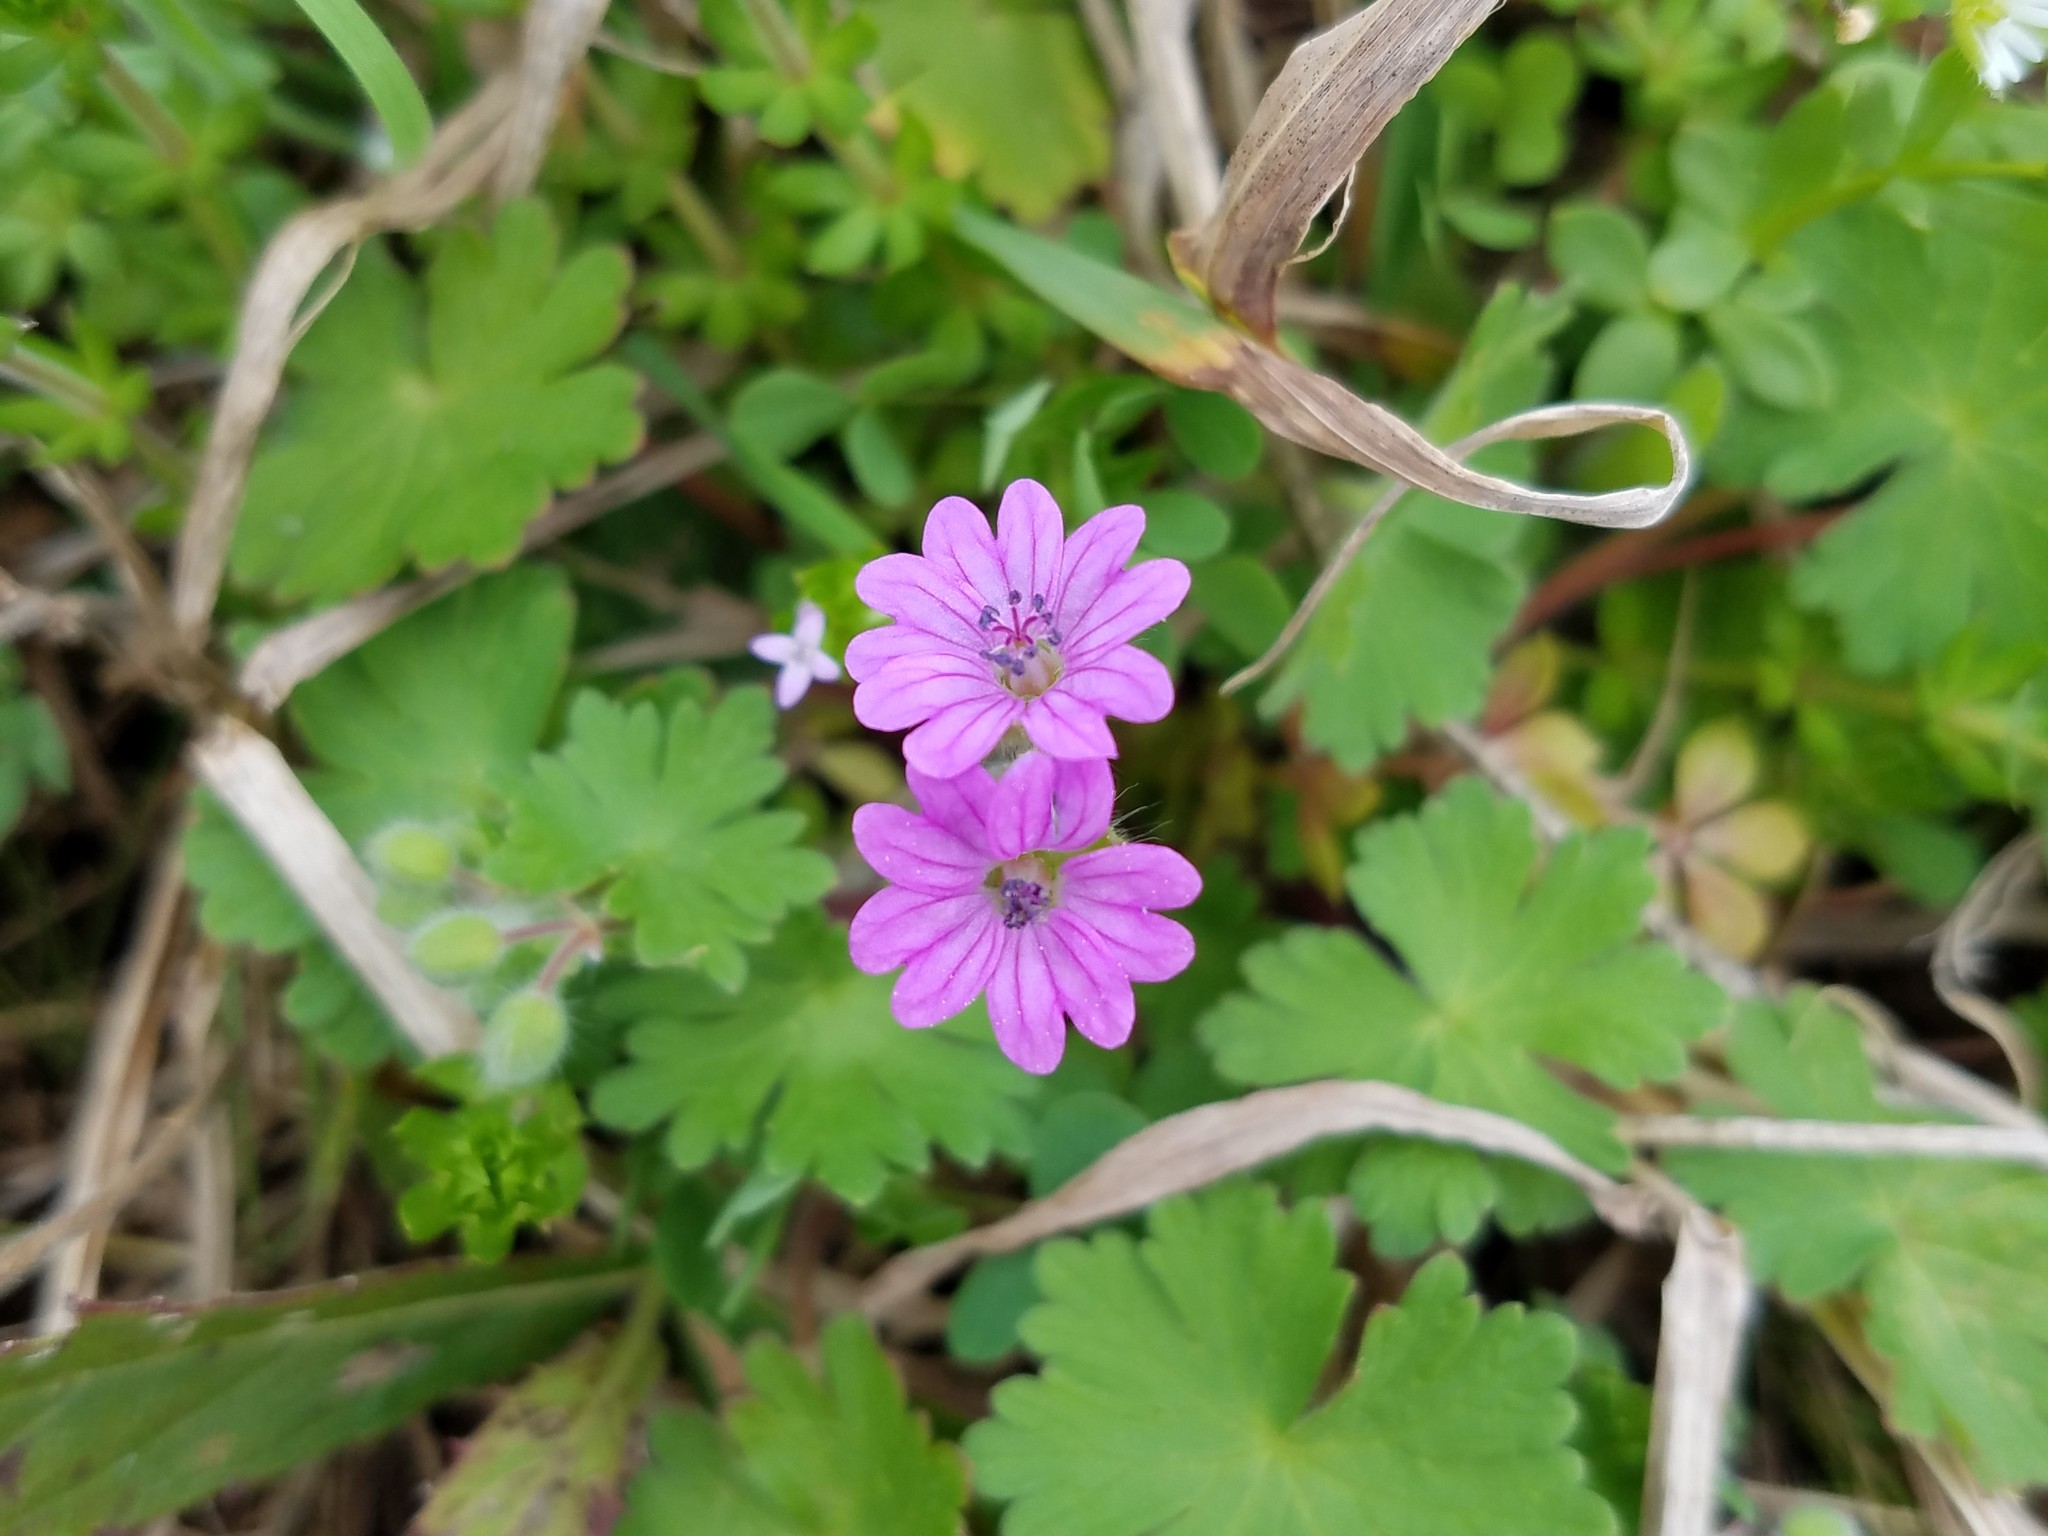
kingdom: Plantae
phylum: Tracheophyta
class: Magnoliopsida
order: Geraniales
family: Geraniaceae
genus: Geranium
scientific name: Geranium molle
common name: Dove's-foot crane's-bill
